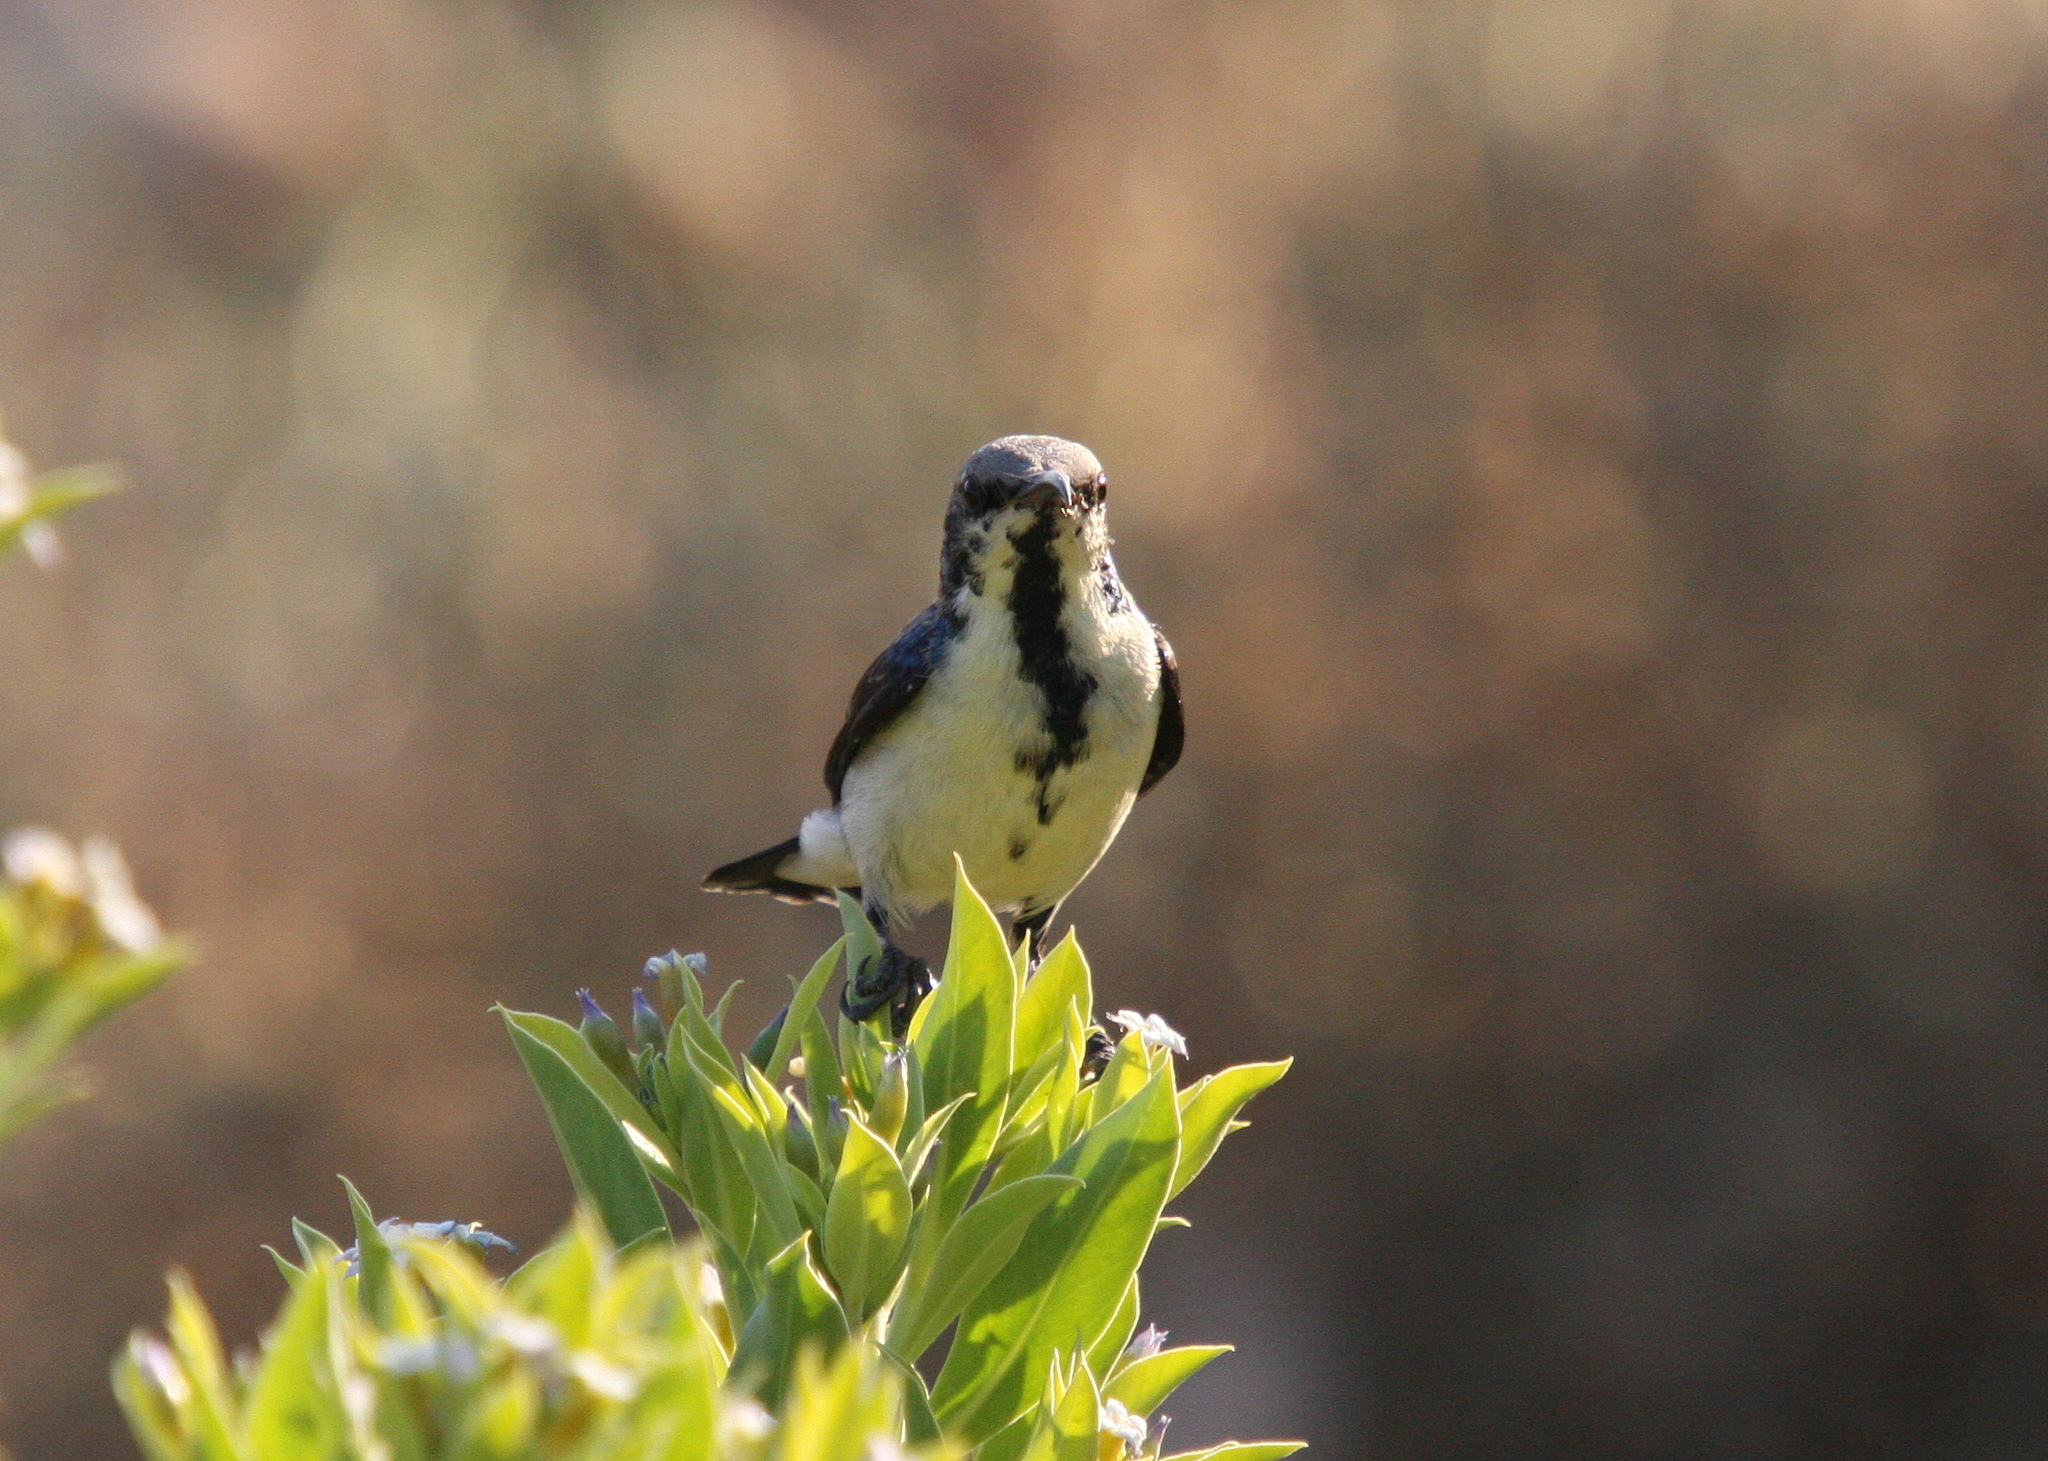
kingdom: Animalia
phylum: Chordata
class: Aves
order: Passeriformes
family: Nectariniidae
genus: Cinnyris
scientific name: Cinnyris asiaticus
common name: Purple sunbird
